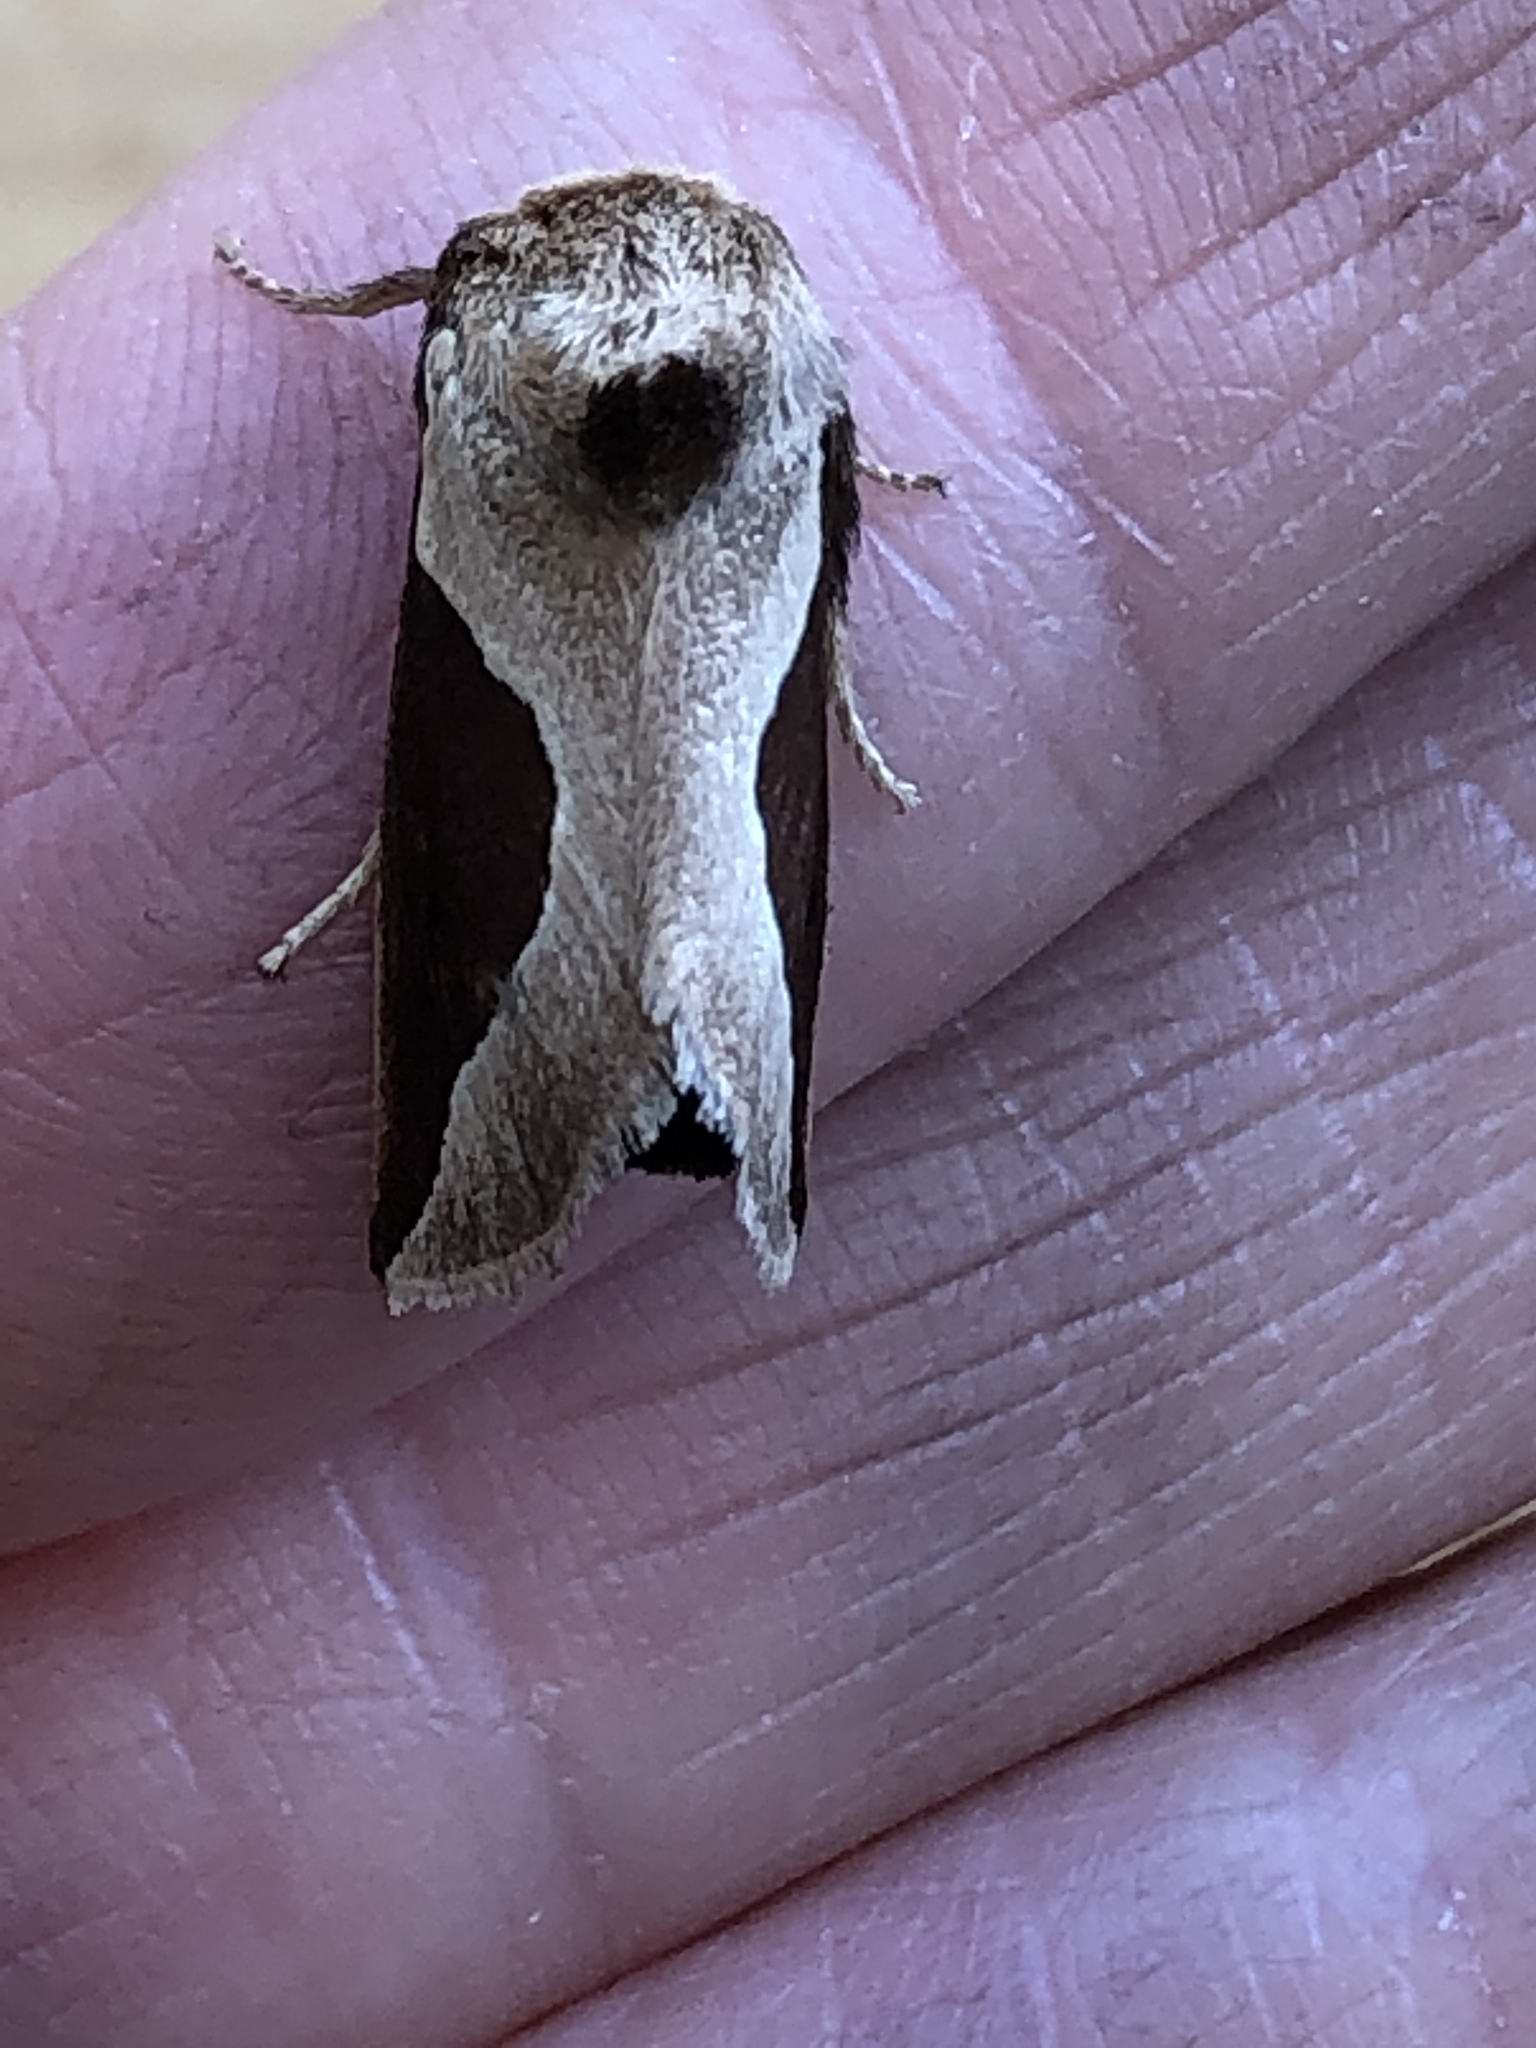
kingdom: Animalia
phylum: Arthropoda
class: Insecta
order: Lepidoptera
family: Limacodidae
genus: Prolimacodes
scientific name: Prolimacodes badia
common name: Skiff moth
